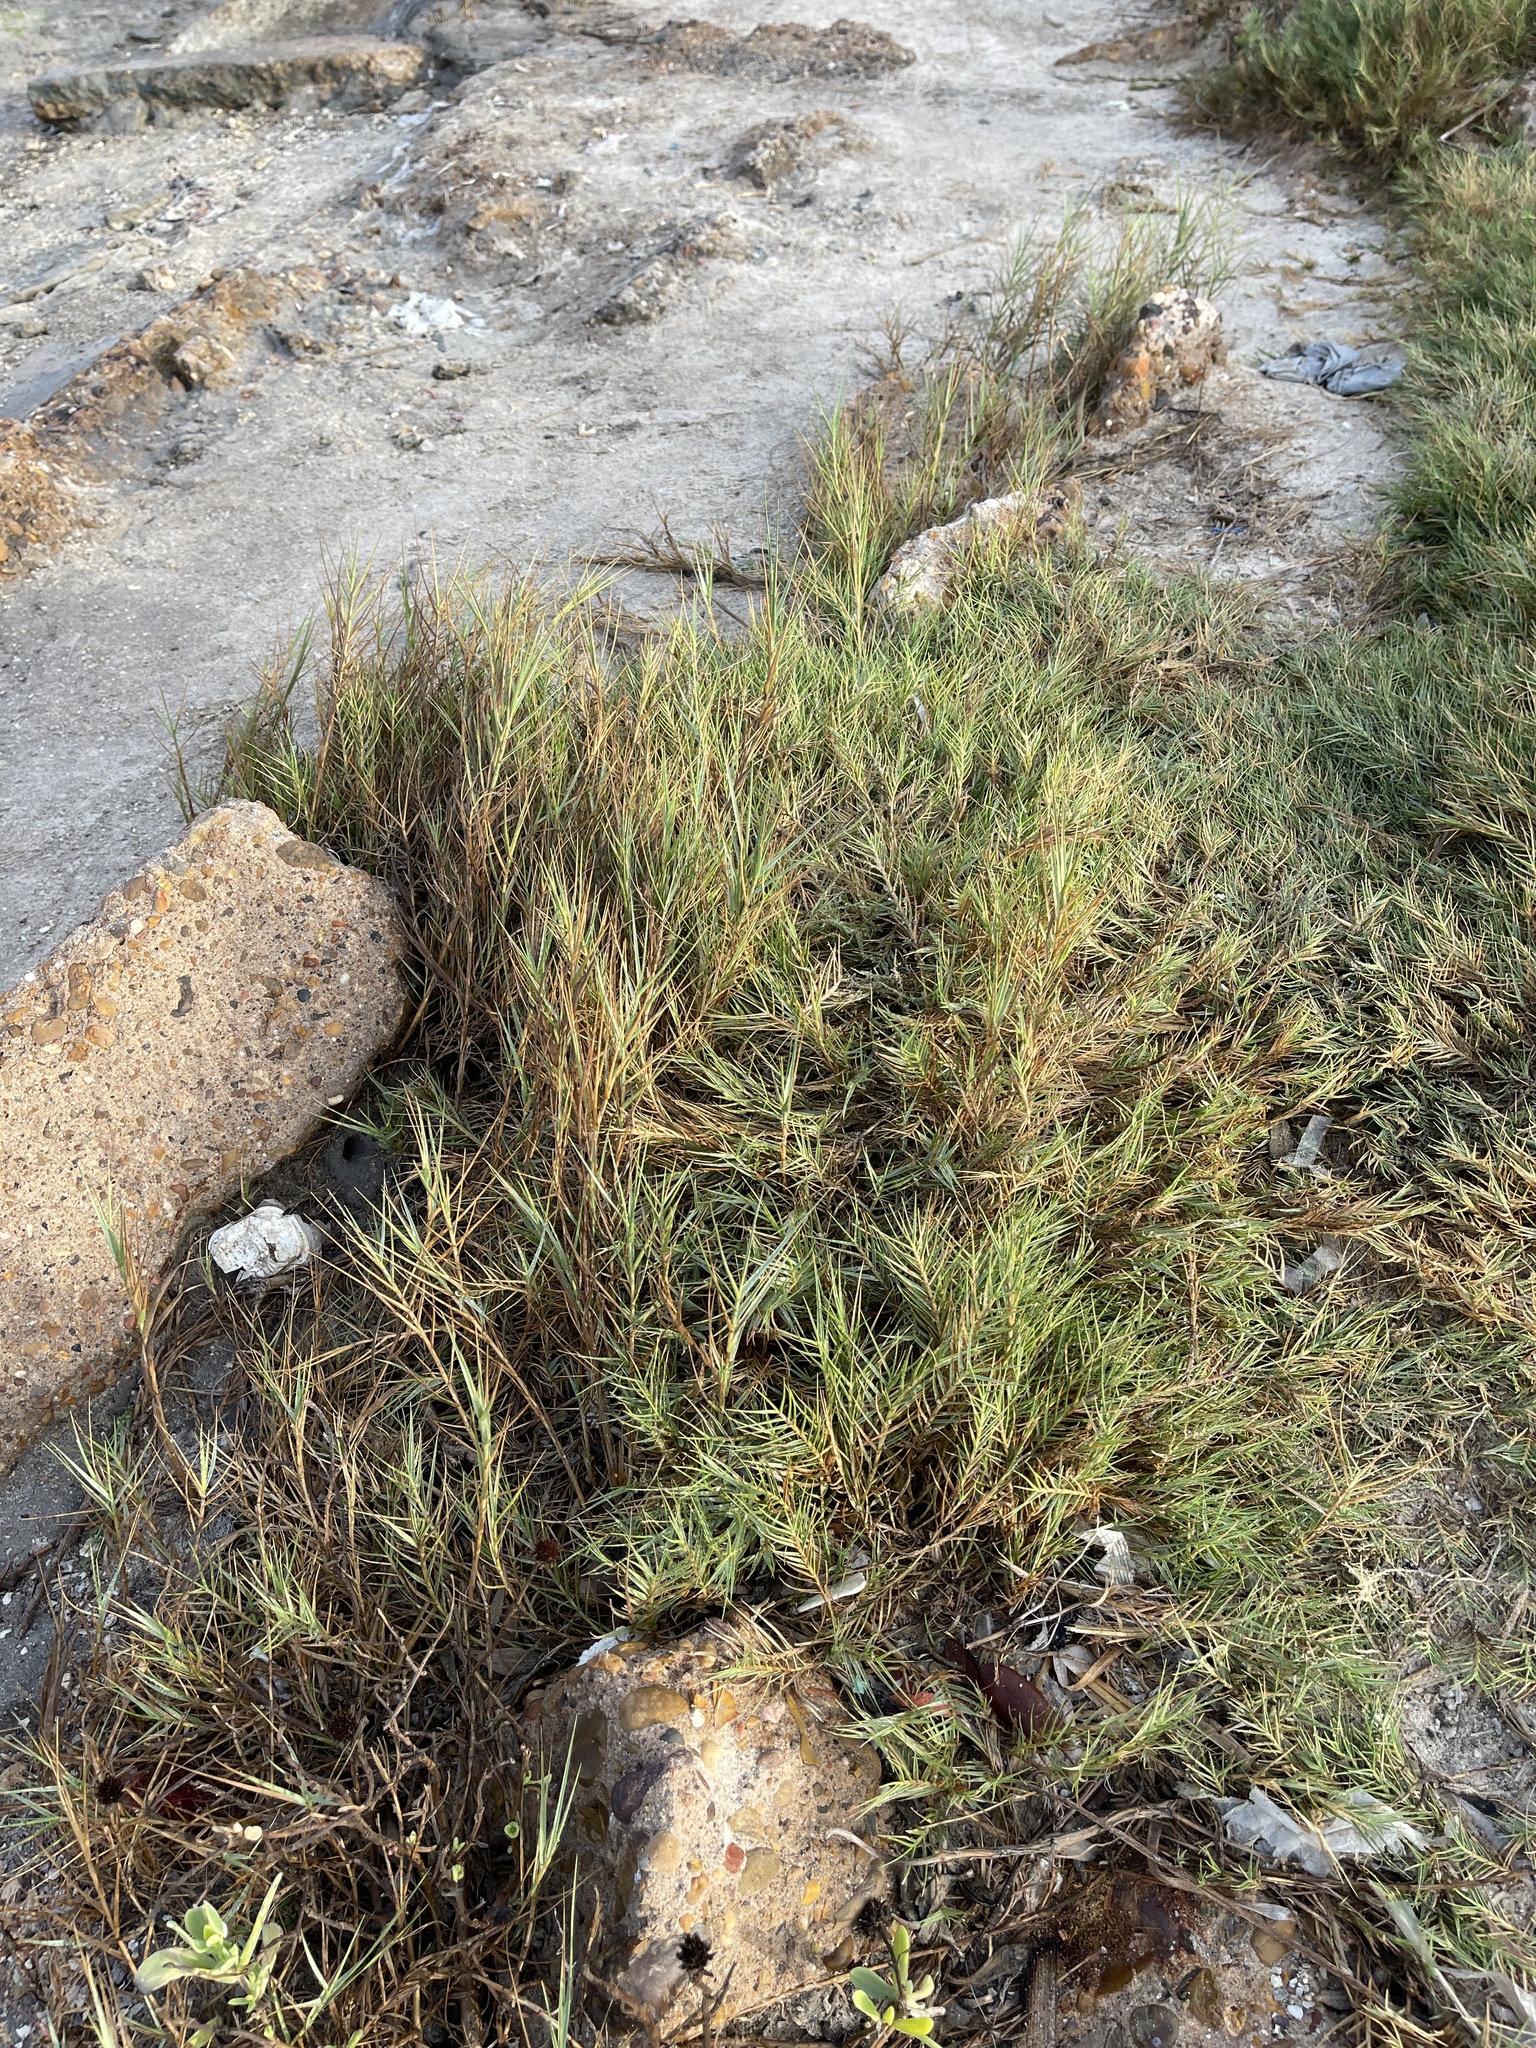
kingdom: Plantae
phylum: Tracheophyta
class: Liliopsida
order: Poales
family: Poaceae
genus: Distichlis
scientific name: Distichlis spicata
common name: Saltgrass
